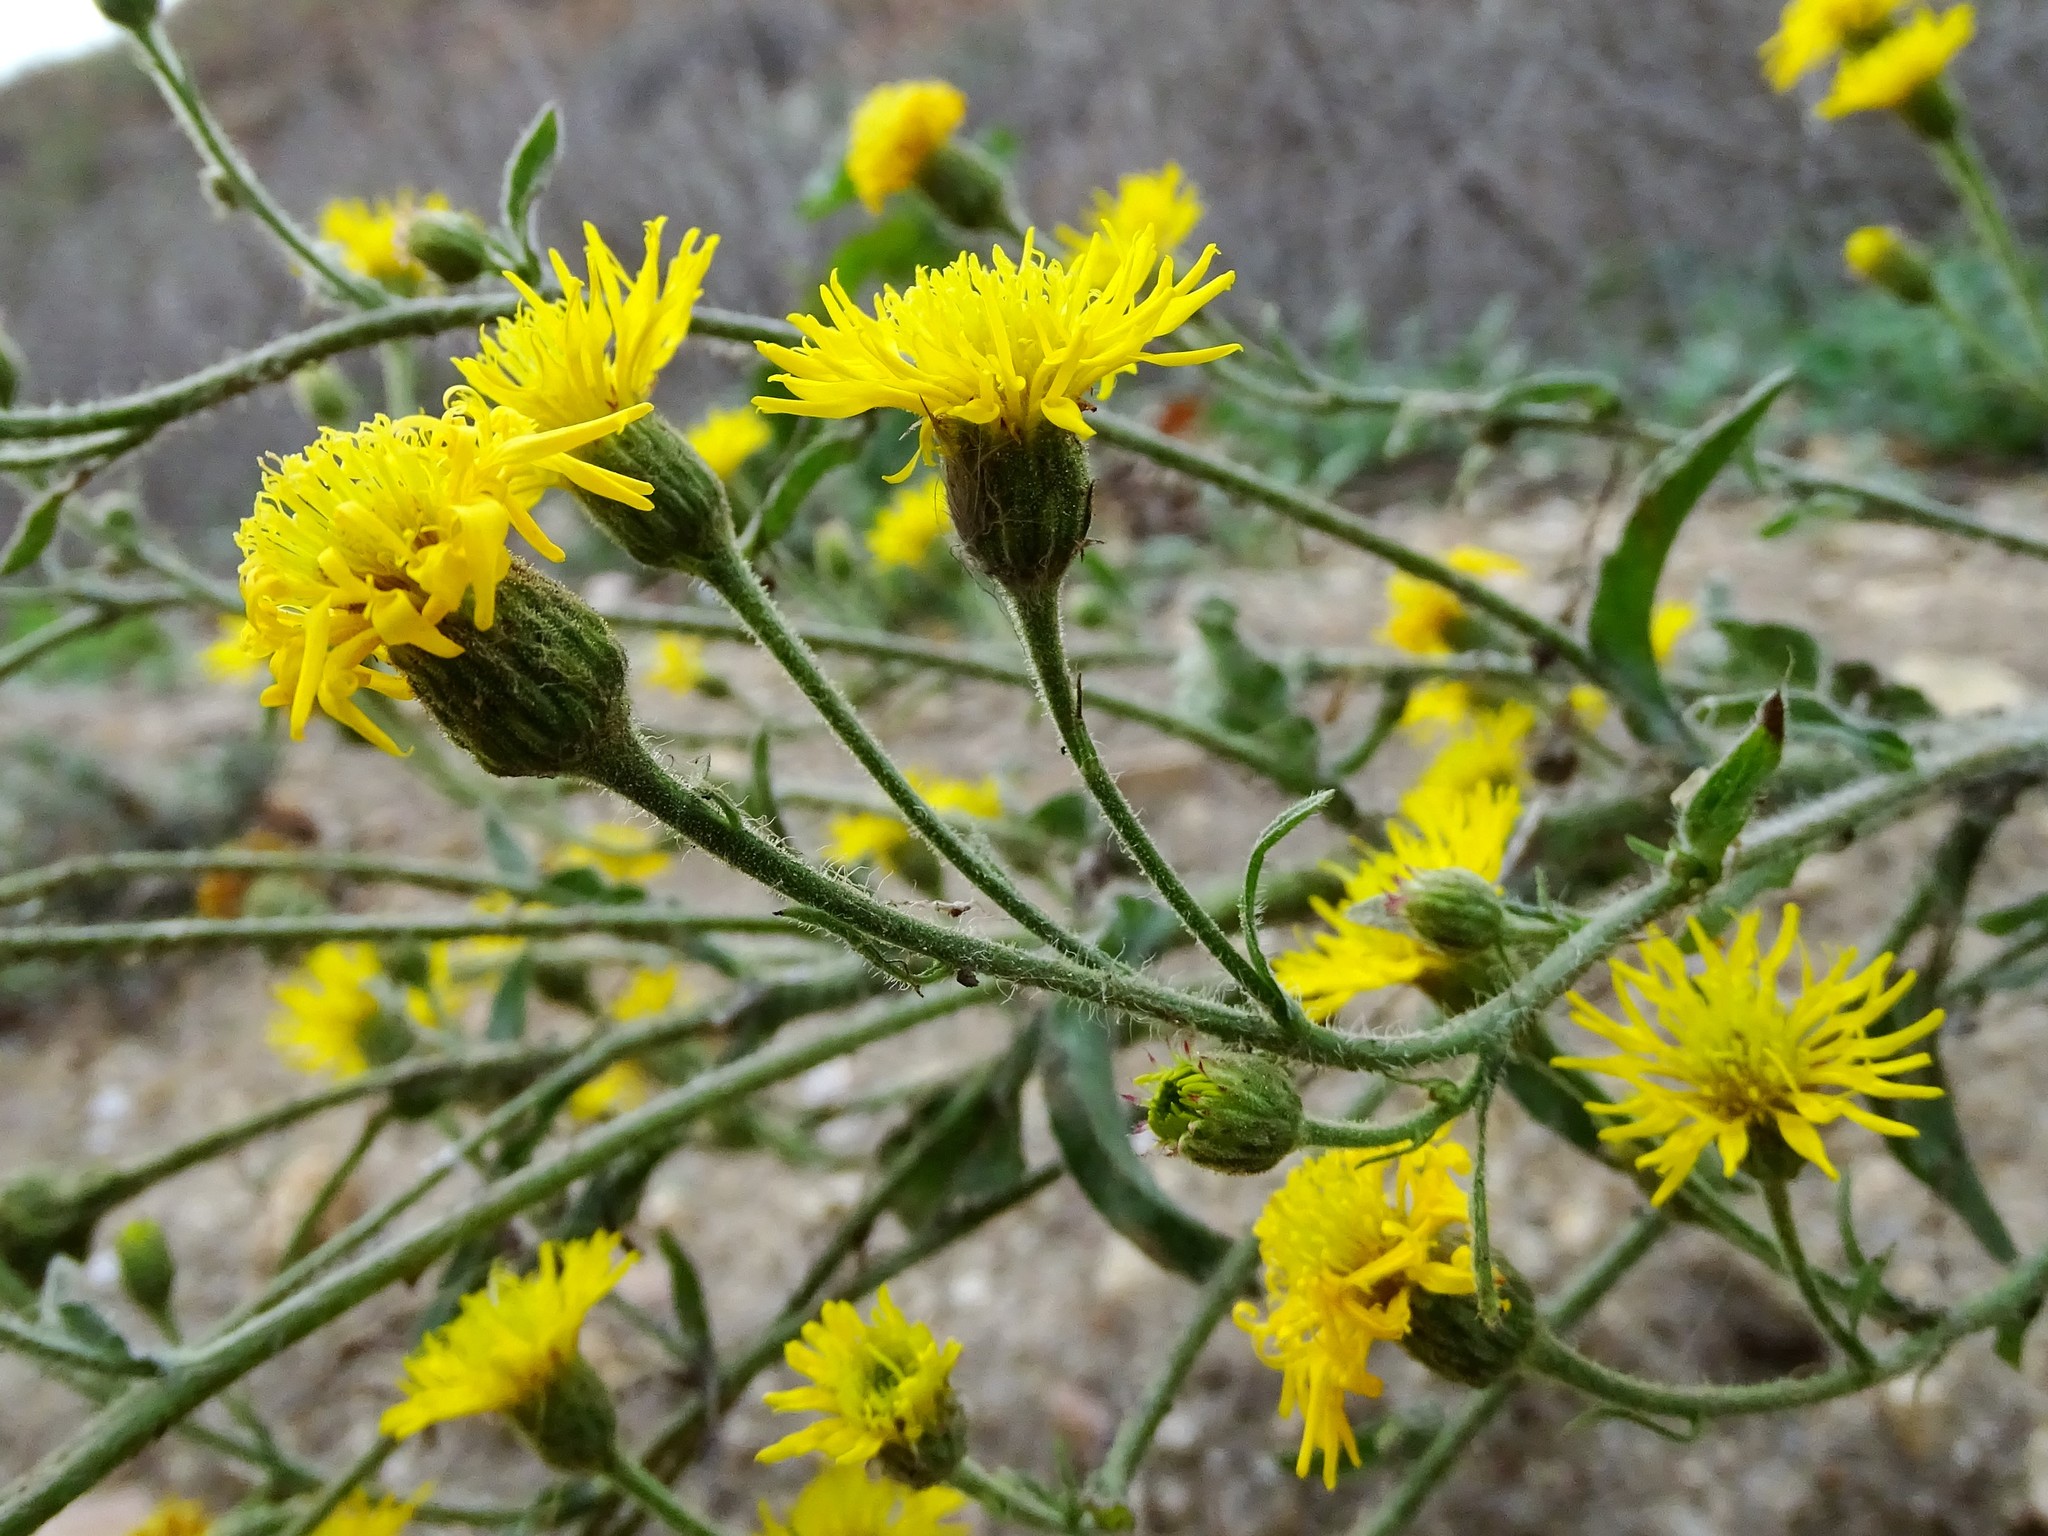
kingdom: Plantae
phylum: Tracheophyta
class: Magnoliopsida
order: Asterales
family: Asteraceae
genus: Heterotheca
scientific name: Heterotheca grandiflora
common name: Telegraphweed
